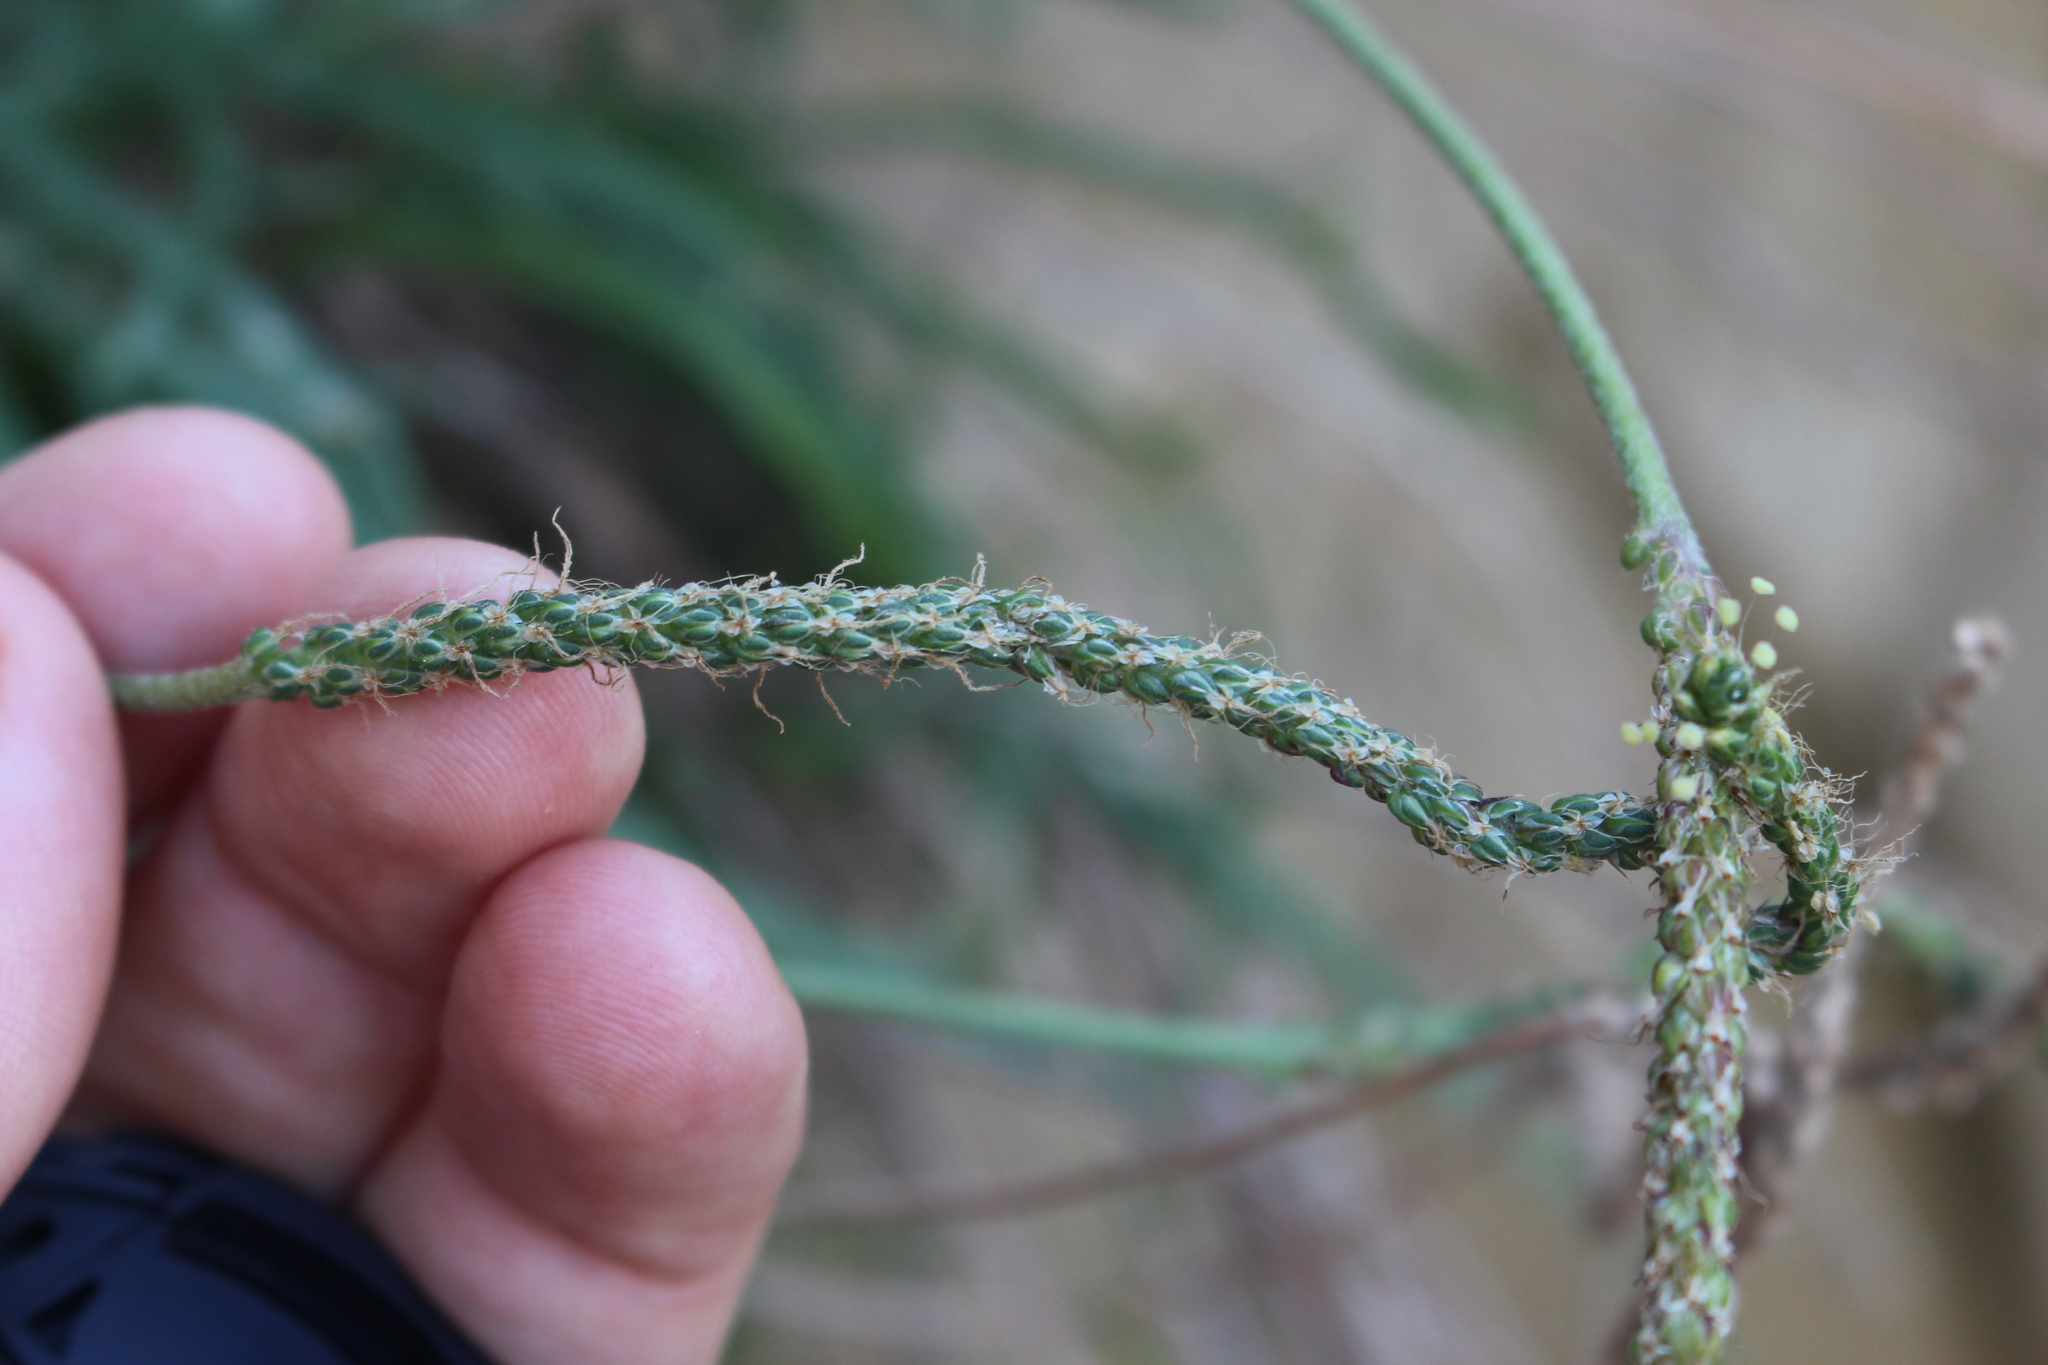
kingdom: Plantae
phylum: Tracheophyta
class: Magnoliopsida
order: Lamiales
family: Plantaginaceae
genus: Plantago
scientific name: Plantago coronopus
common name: Buck's-horn plantain
